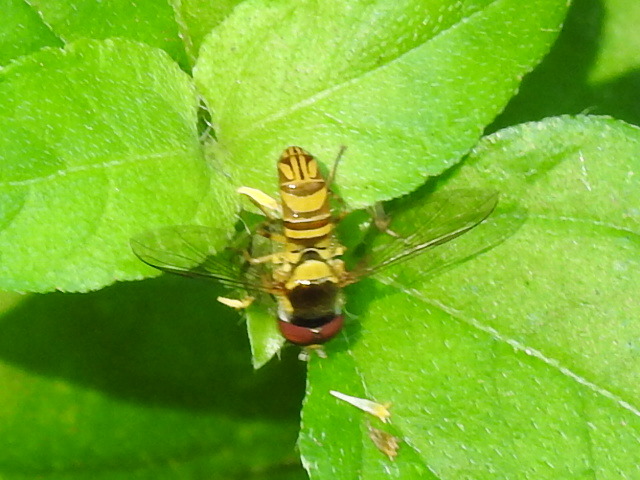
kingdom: Animalia
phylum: Arthropoda
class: Insecta
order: Diptera
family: Syrphidae
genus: Allograpta
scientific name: Allograpta obliqua
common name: Common oblique syrphid
